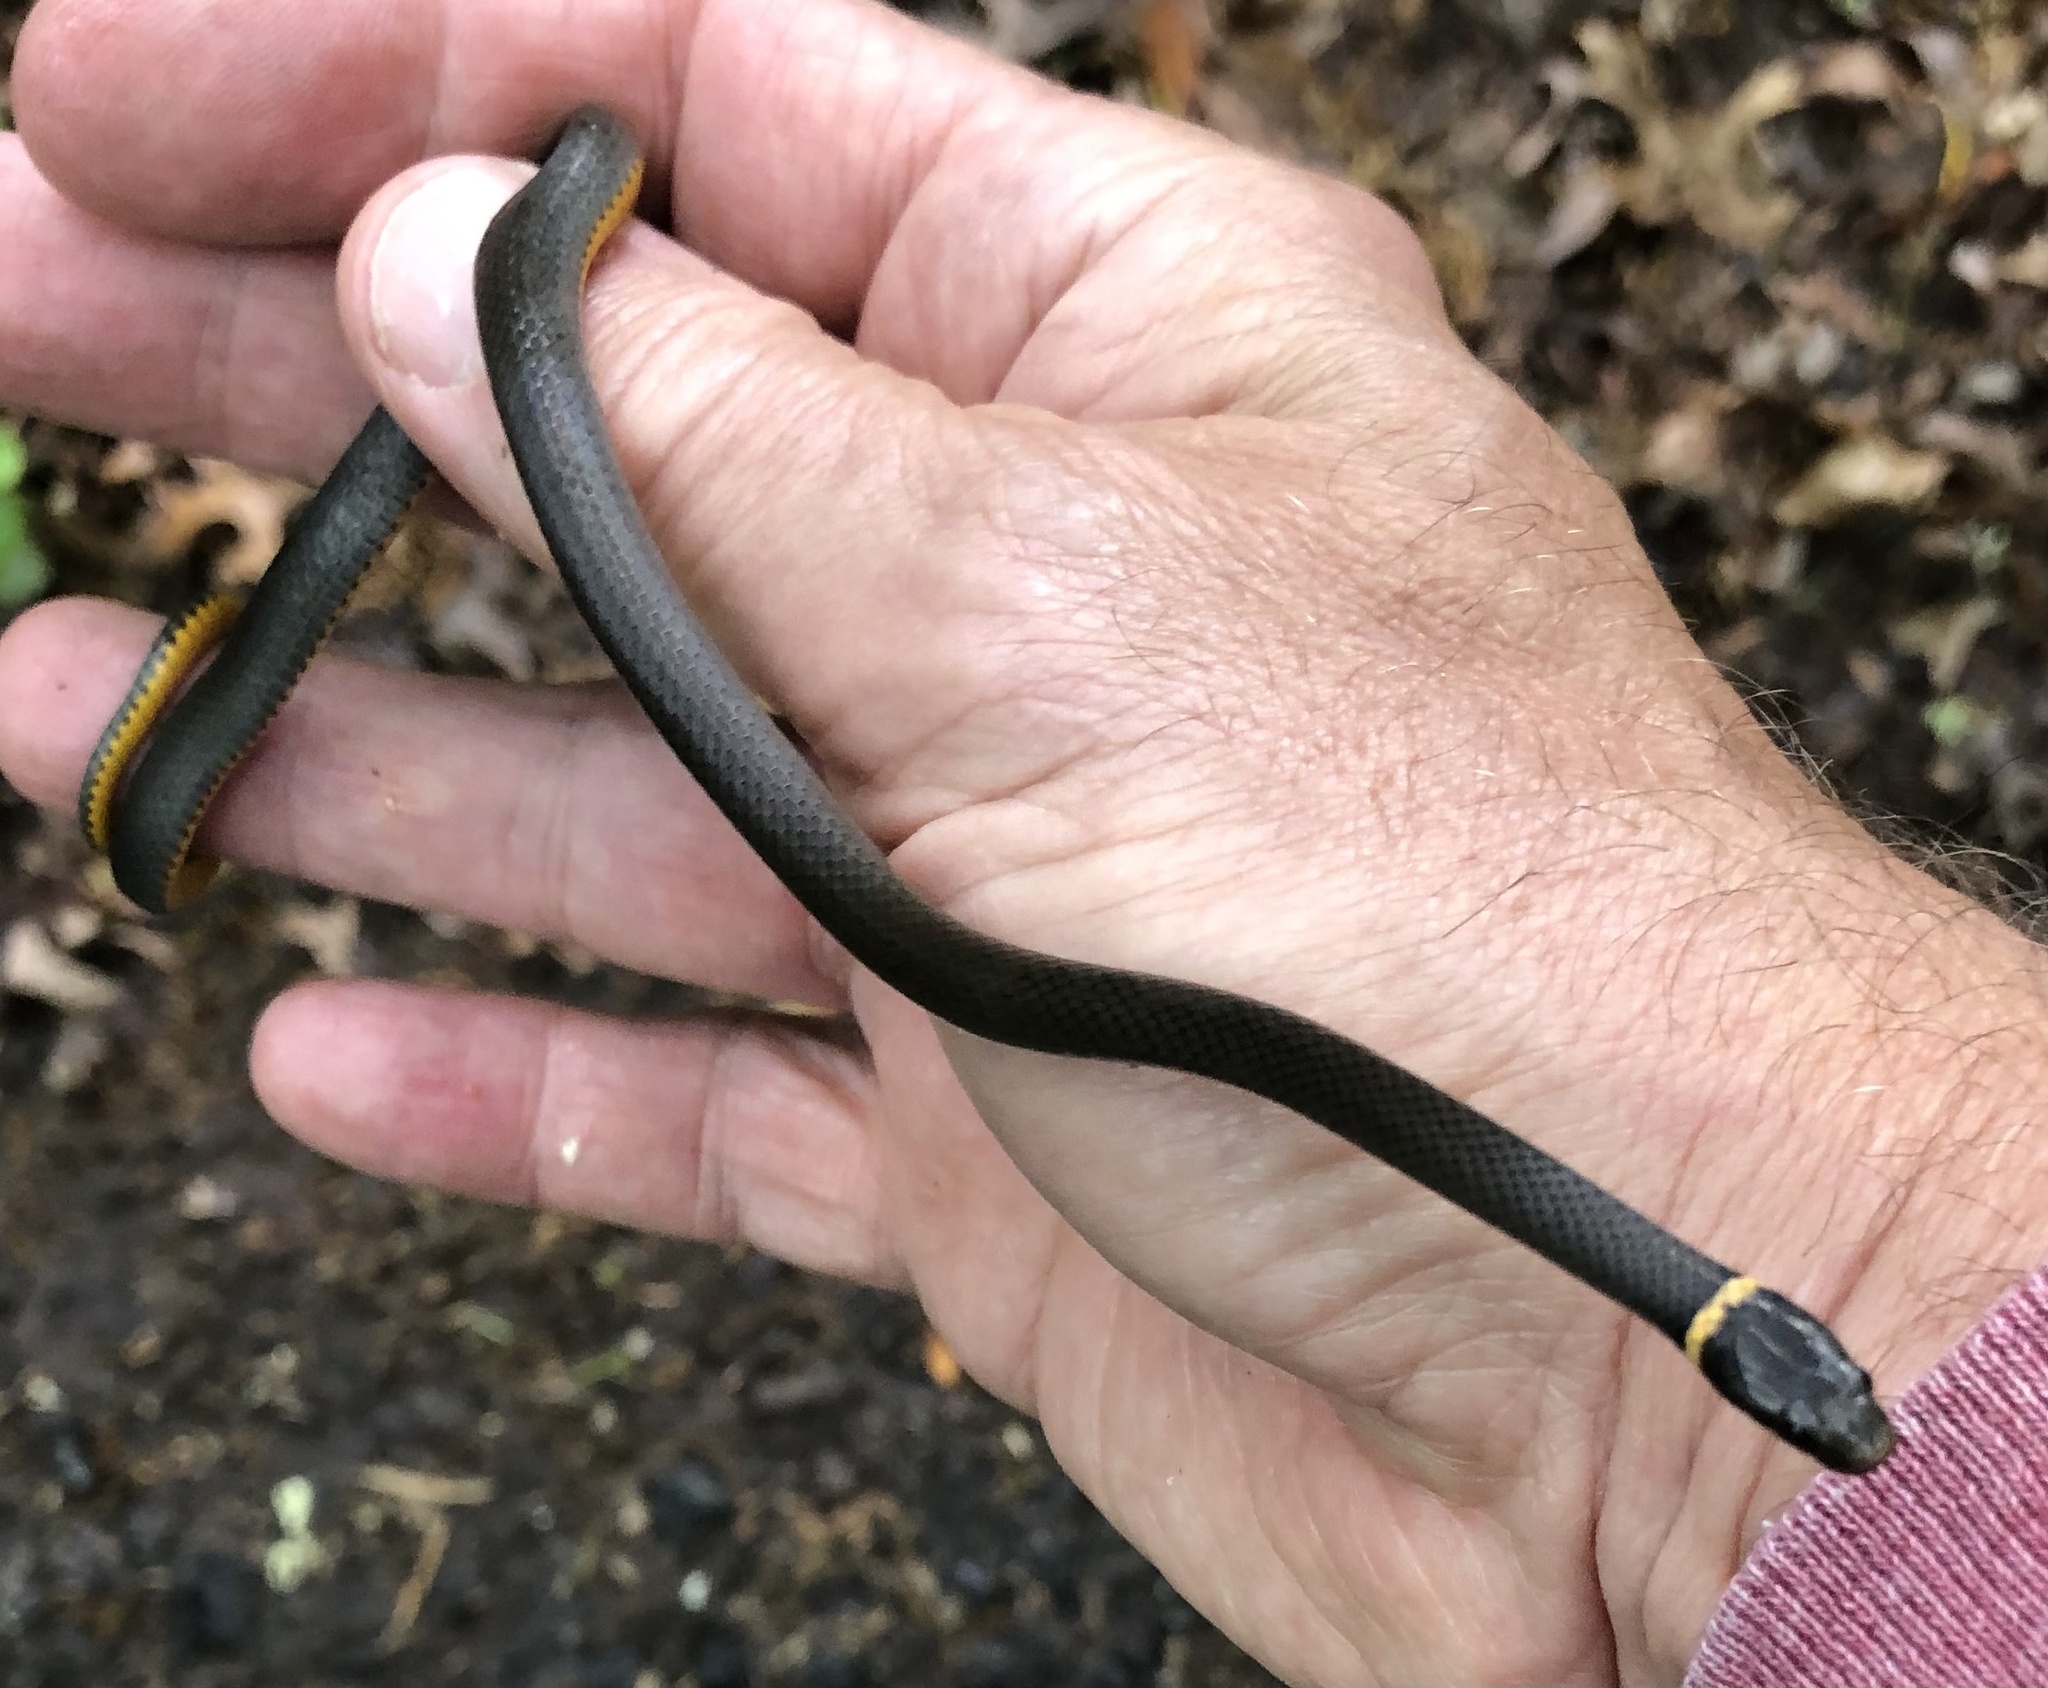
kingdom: Animalia
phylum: Chordata
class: Squamata
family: Colubridae
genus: Diadophis
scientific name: Diadophis punctatus
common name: Ringneck snake
